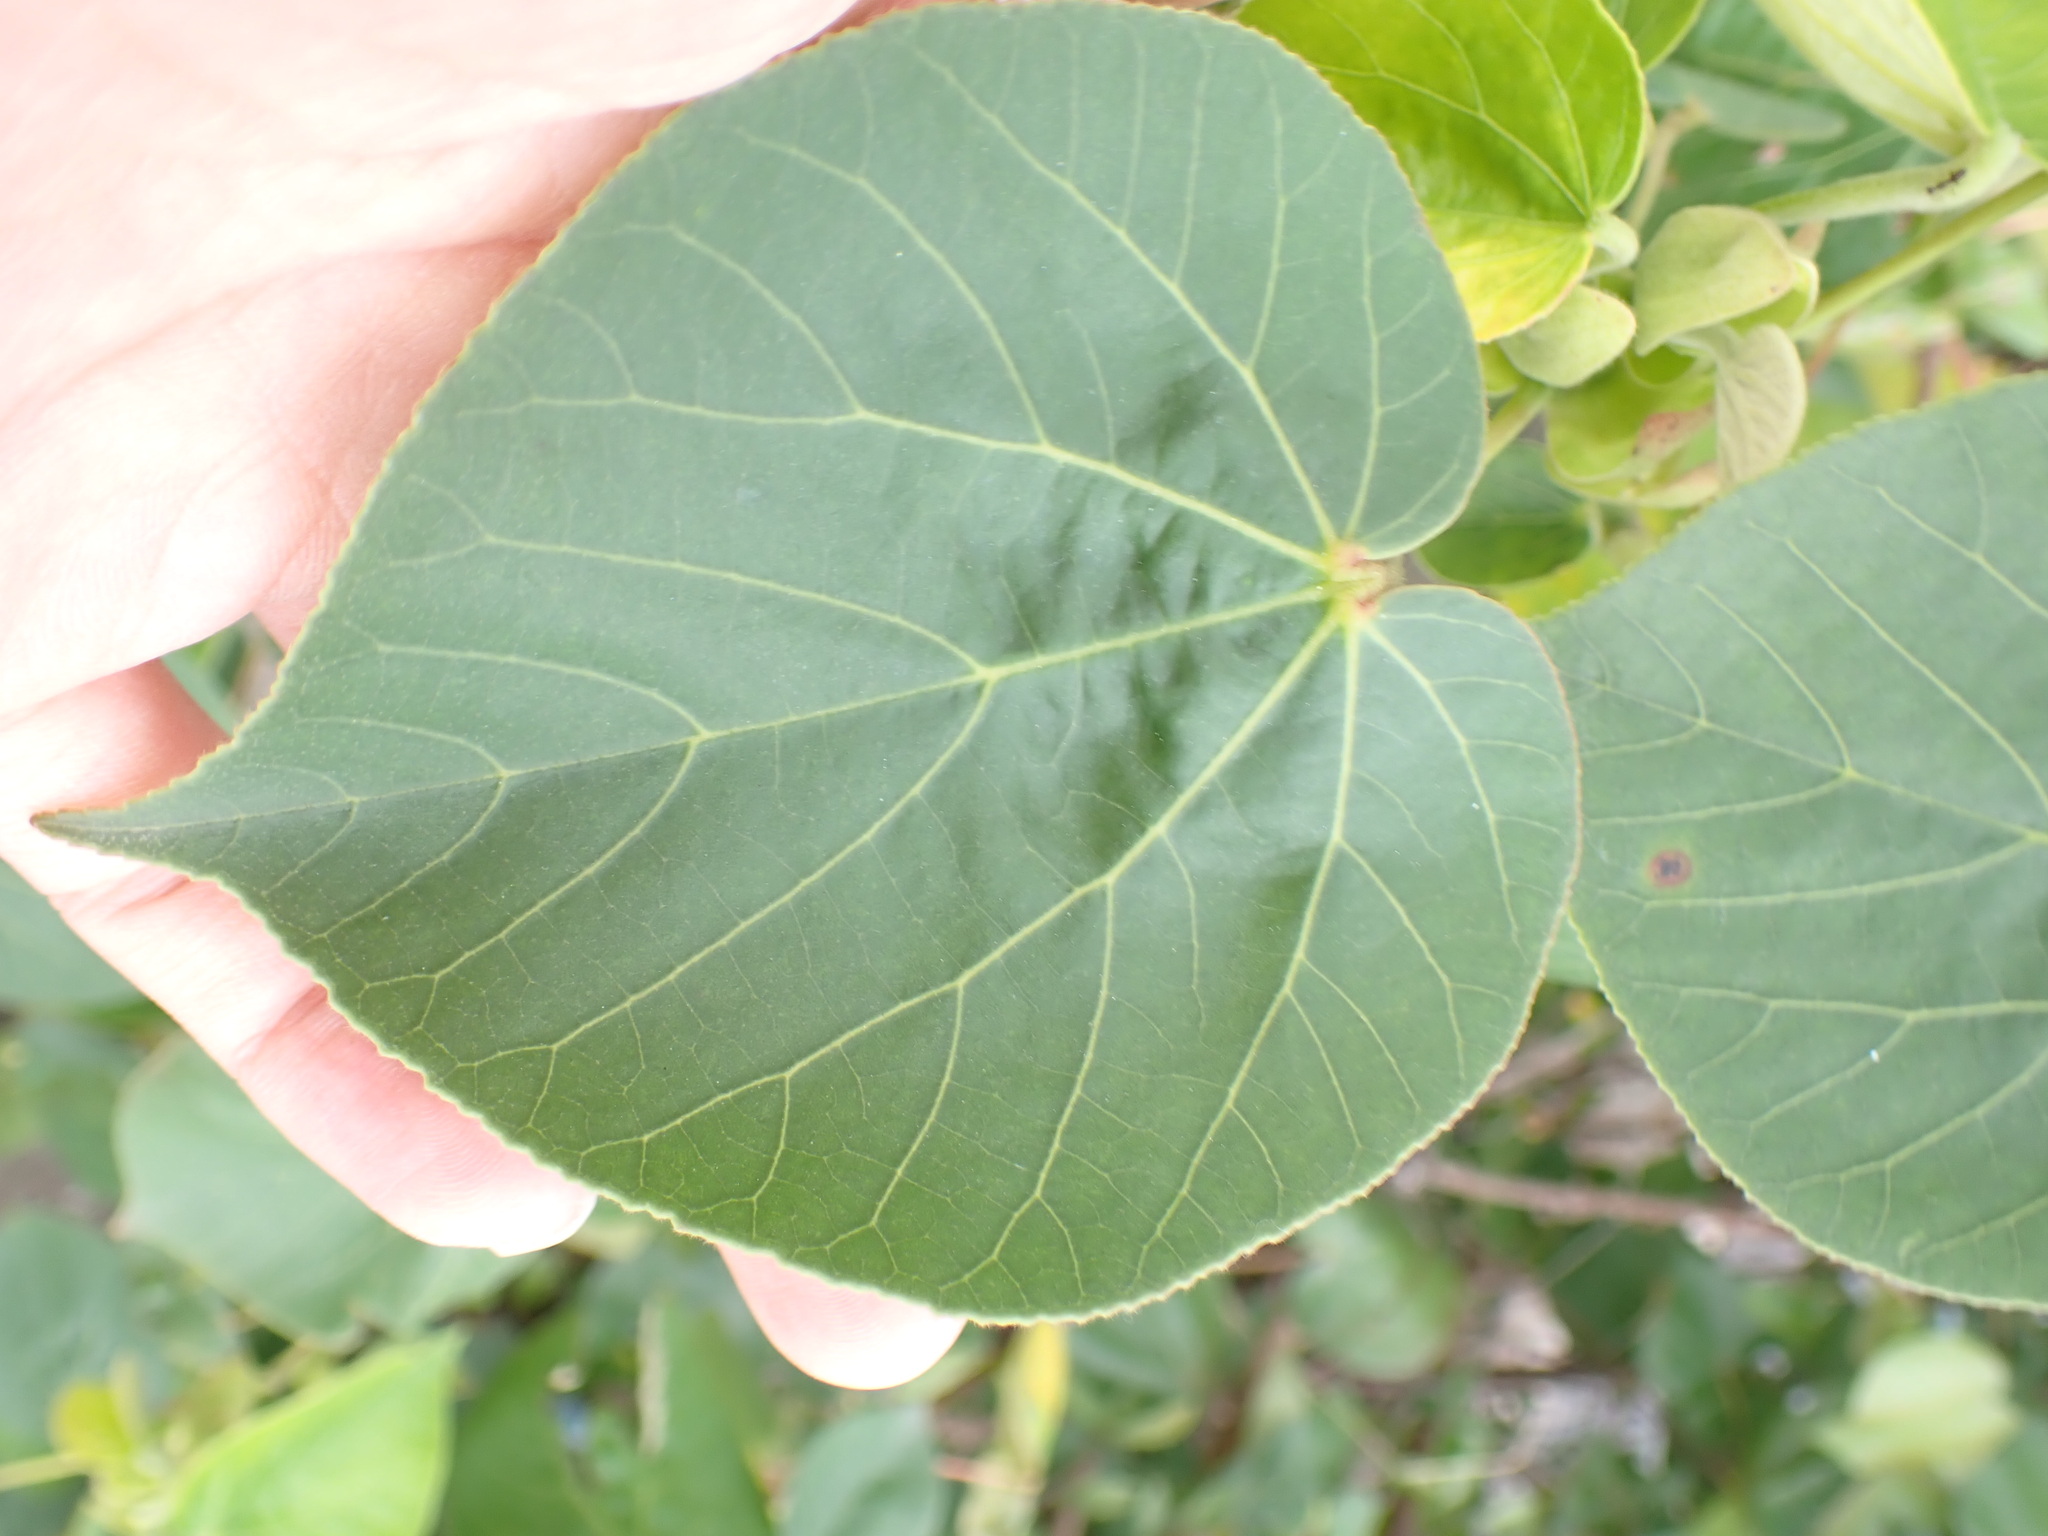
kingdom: Plantae
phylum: Tracheophyta
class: Magnoliopsida
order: Malvales
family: Malvaceae
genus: Talipariti
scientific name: Talipariti tiliaceum
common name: Sea hibiscus
